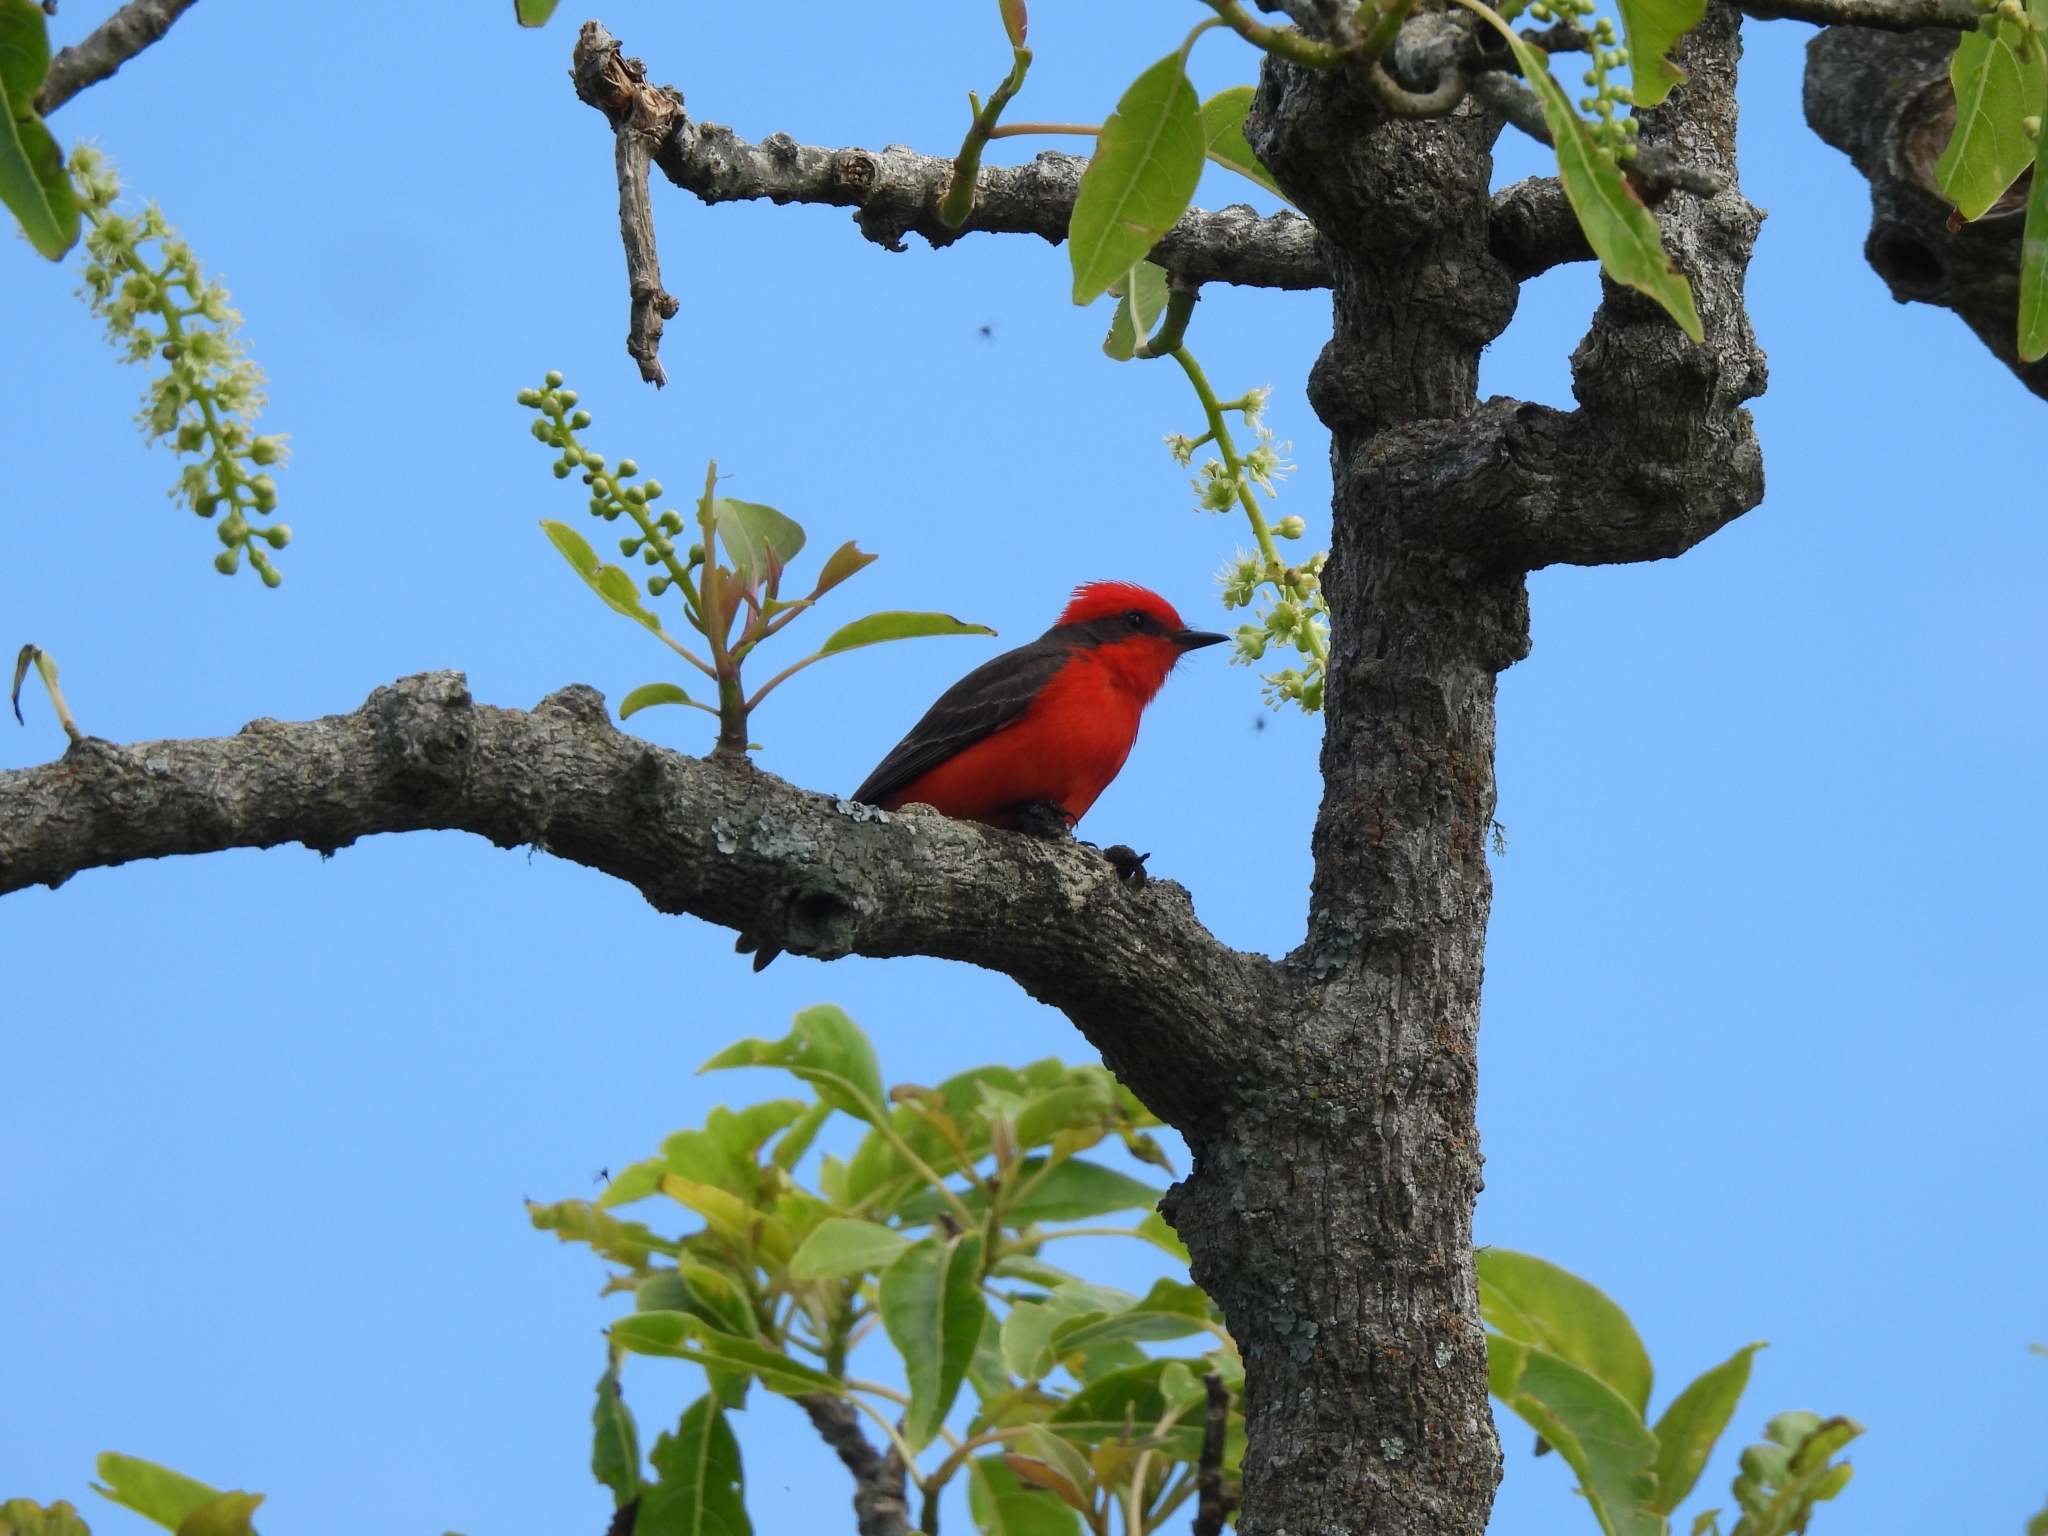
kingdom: Animalia
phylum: Chordata
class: Aves
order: Passeriformes
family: Tyrannidae
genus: Pyrocephalus
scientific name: Pyrocephalus rubinus
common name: Vermilion flycatcher
